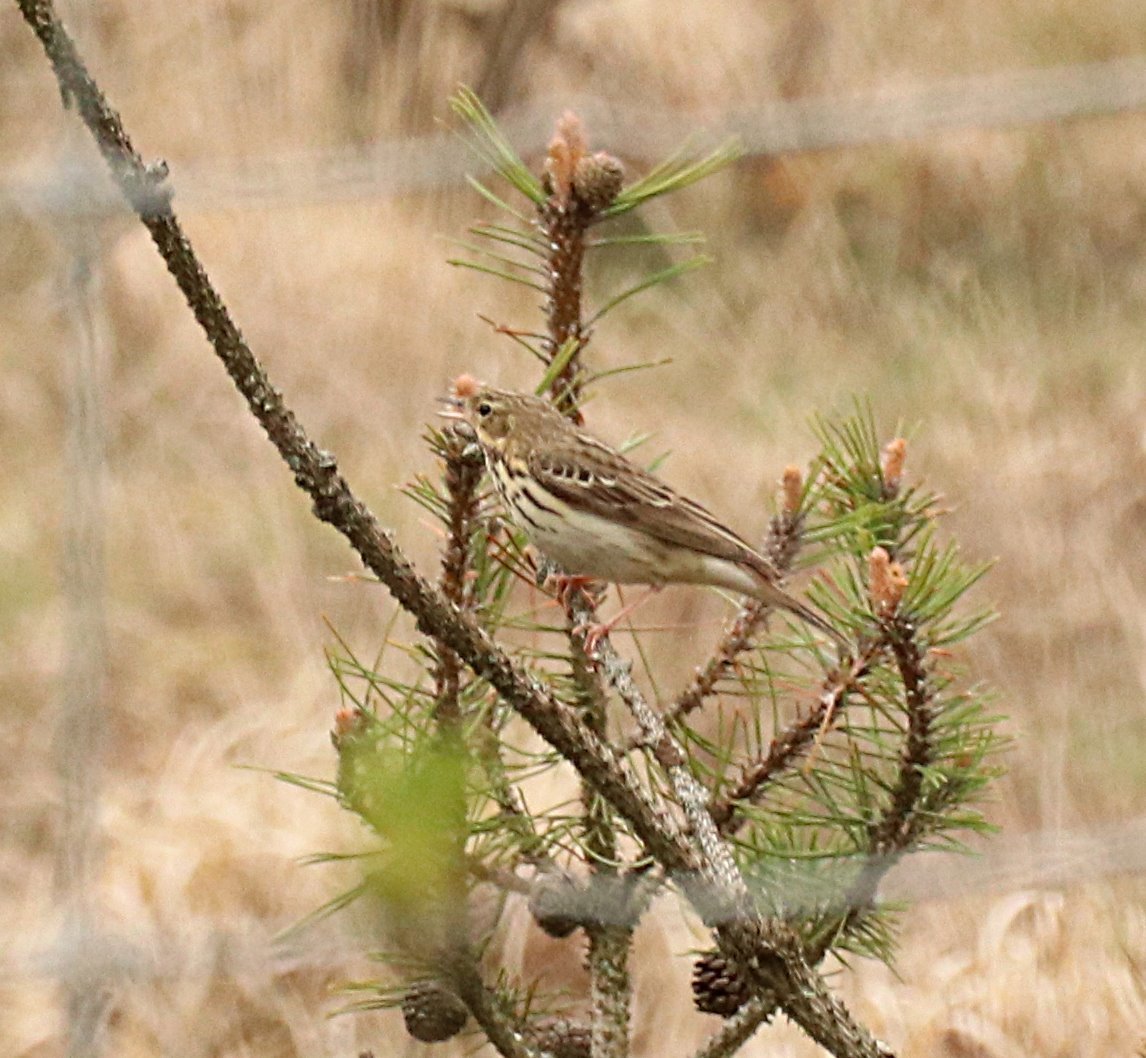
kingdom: Animalia
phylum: Chordata
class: Aves
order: Passeriformes
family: Motacillidae
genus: Anthus
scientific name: Anthus trivialis
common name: Tree pipit
